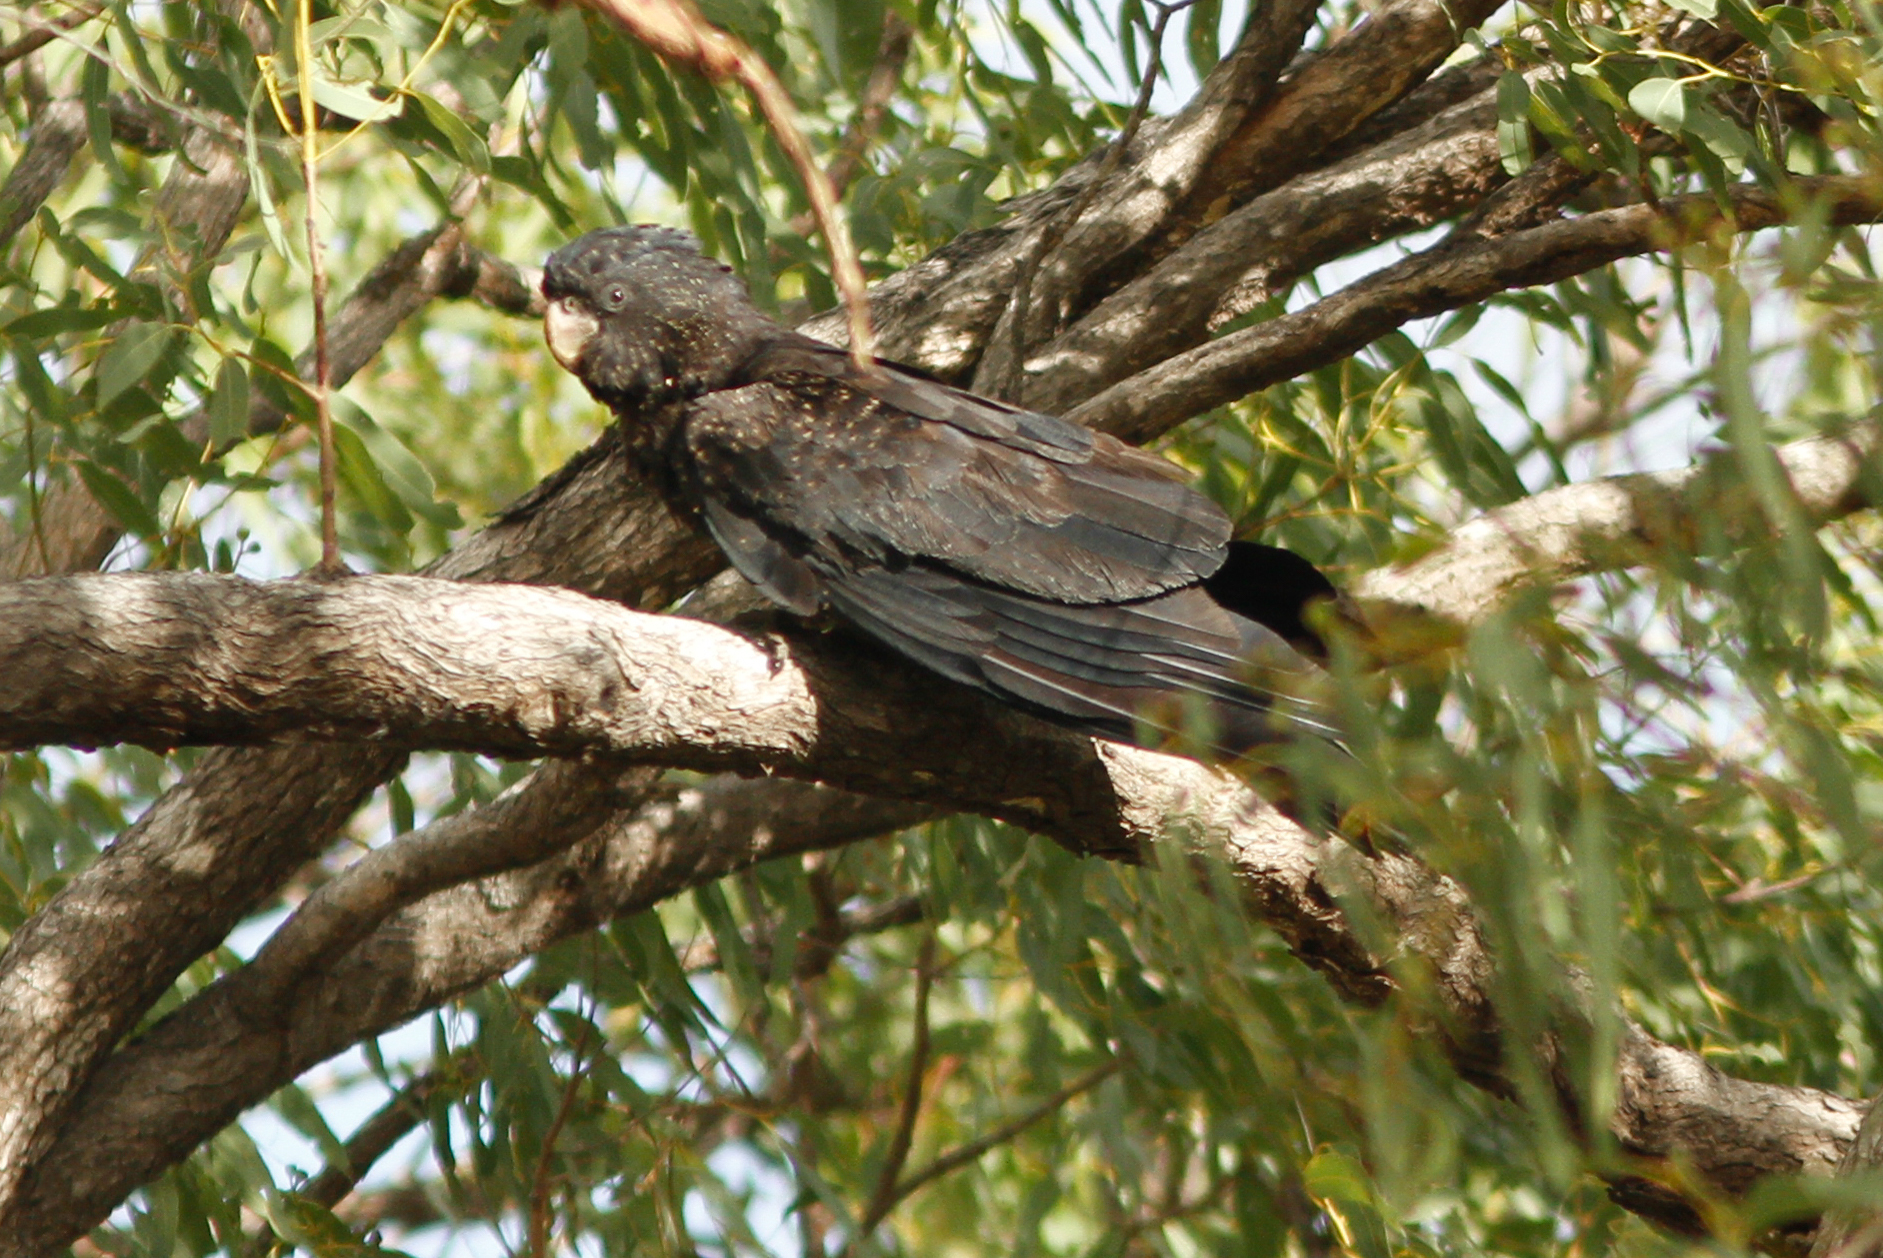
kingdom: Animalia
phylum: Chordata
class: Aves
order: Psittaciformes
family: Psittacidae
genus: Calyptorhynchus
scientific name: Calyptorhynchus banksii
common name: Red-tailed black cockatoo
